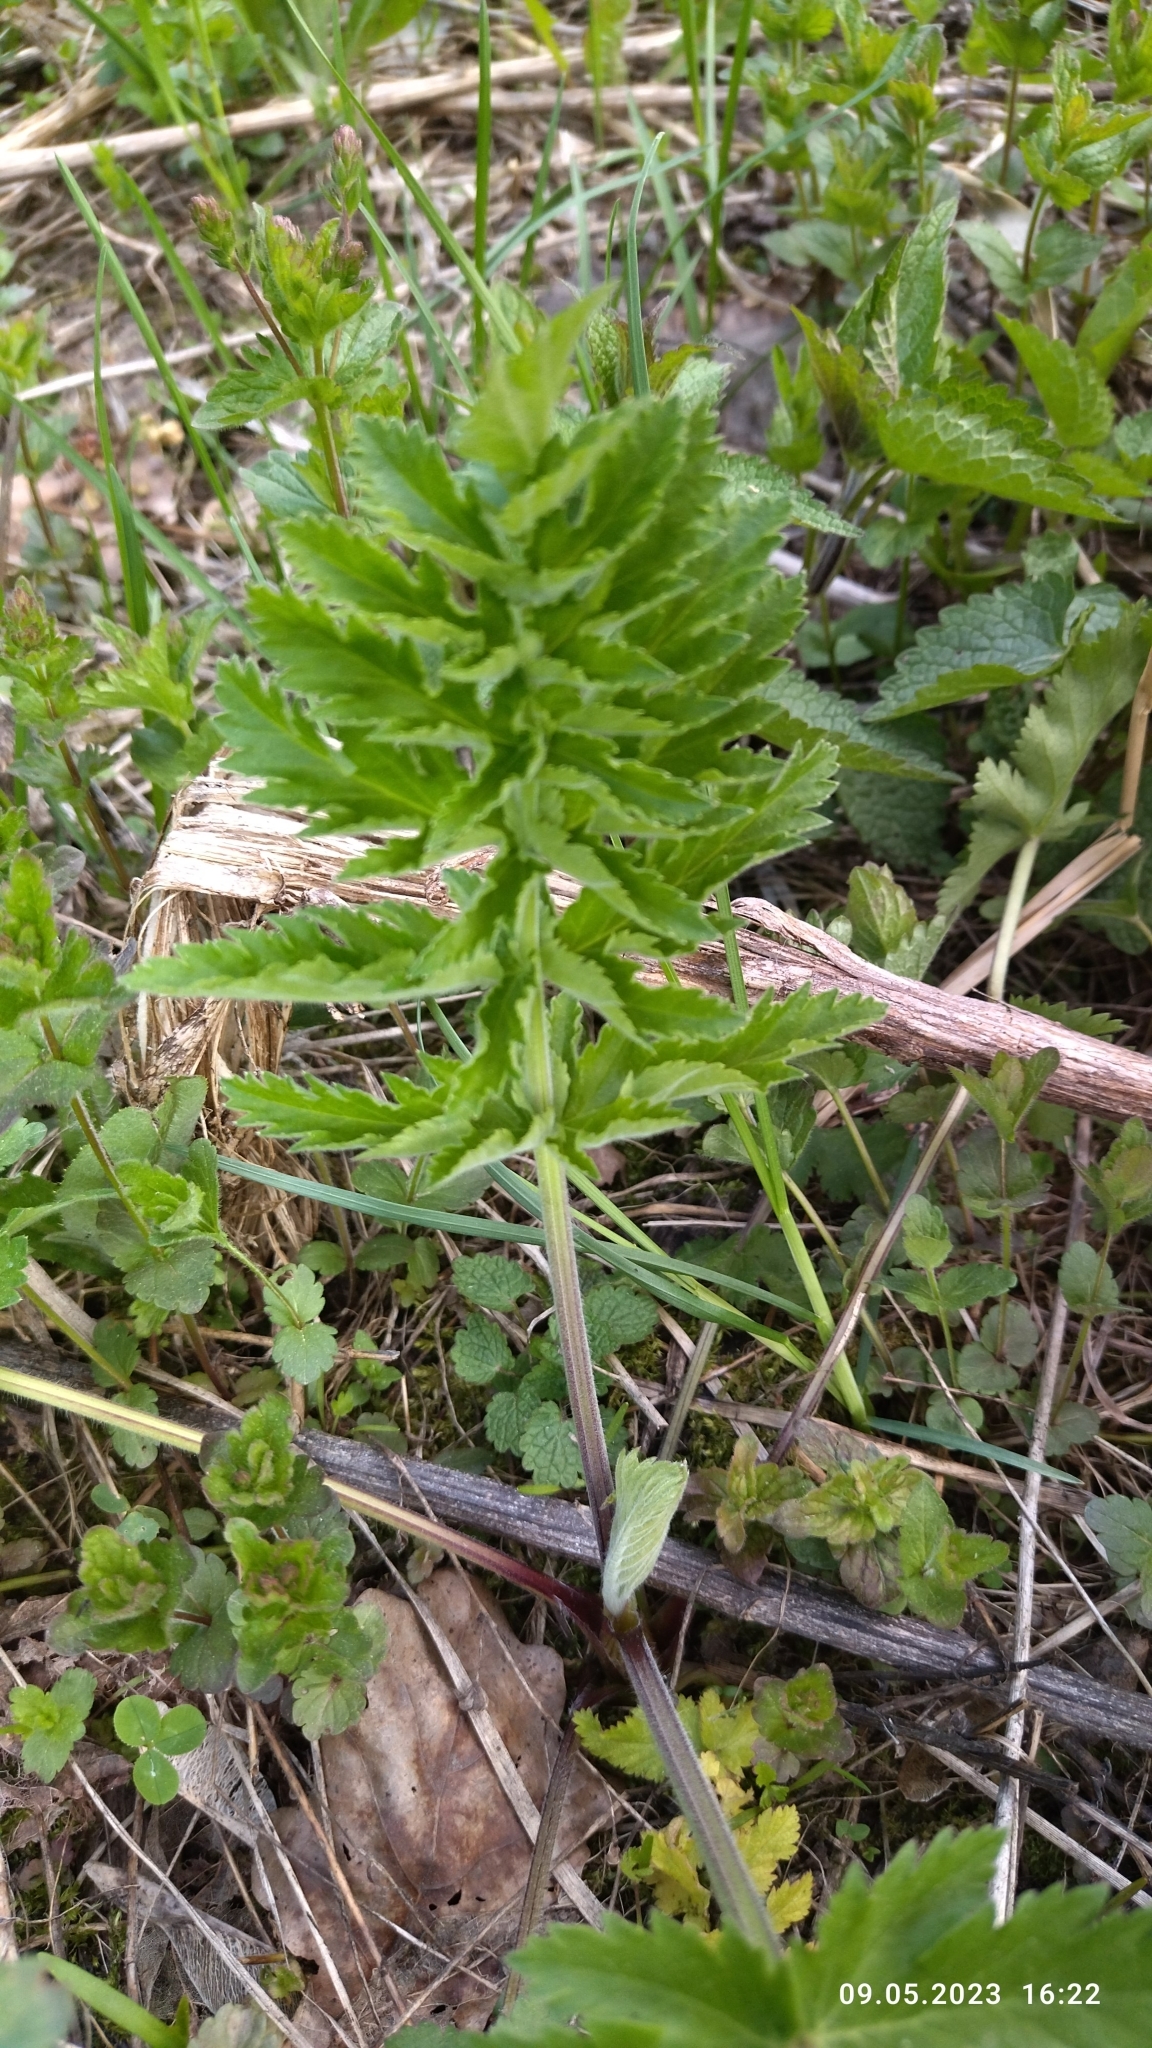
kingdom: Plantae
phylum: Tracheophyta
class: Magnoliopsida
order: Apiales
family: Apiaceae
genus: Pastinaca
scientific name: Pastinaca sativa
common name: Wild parsnip
